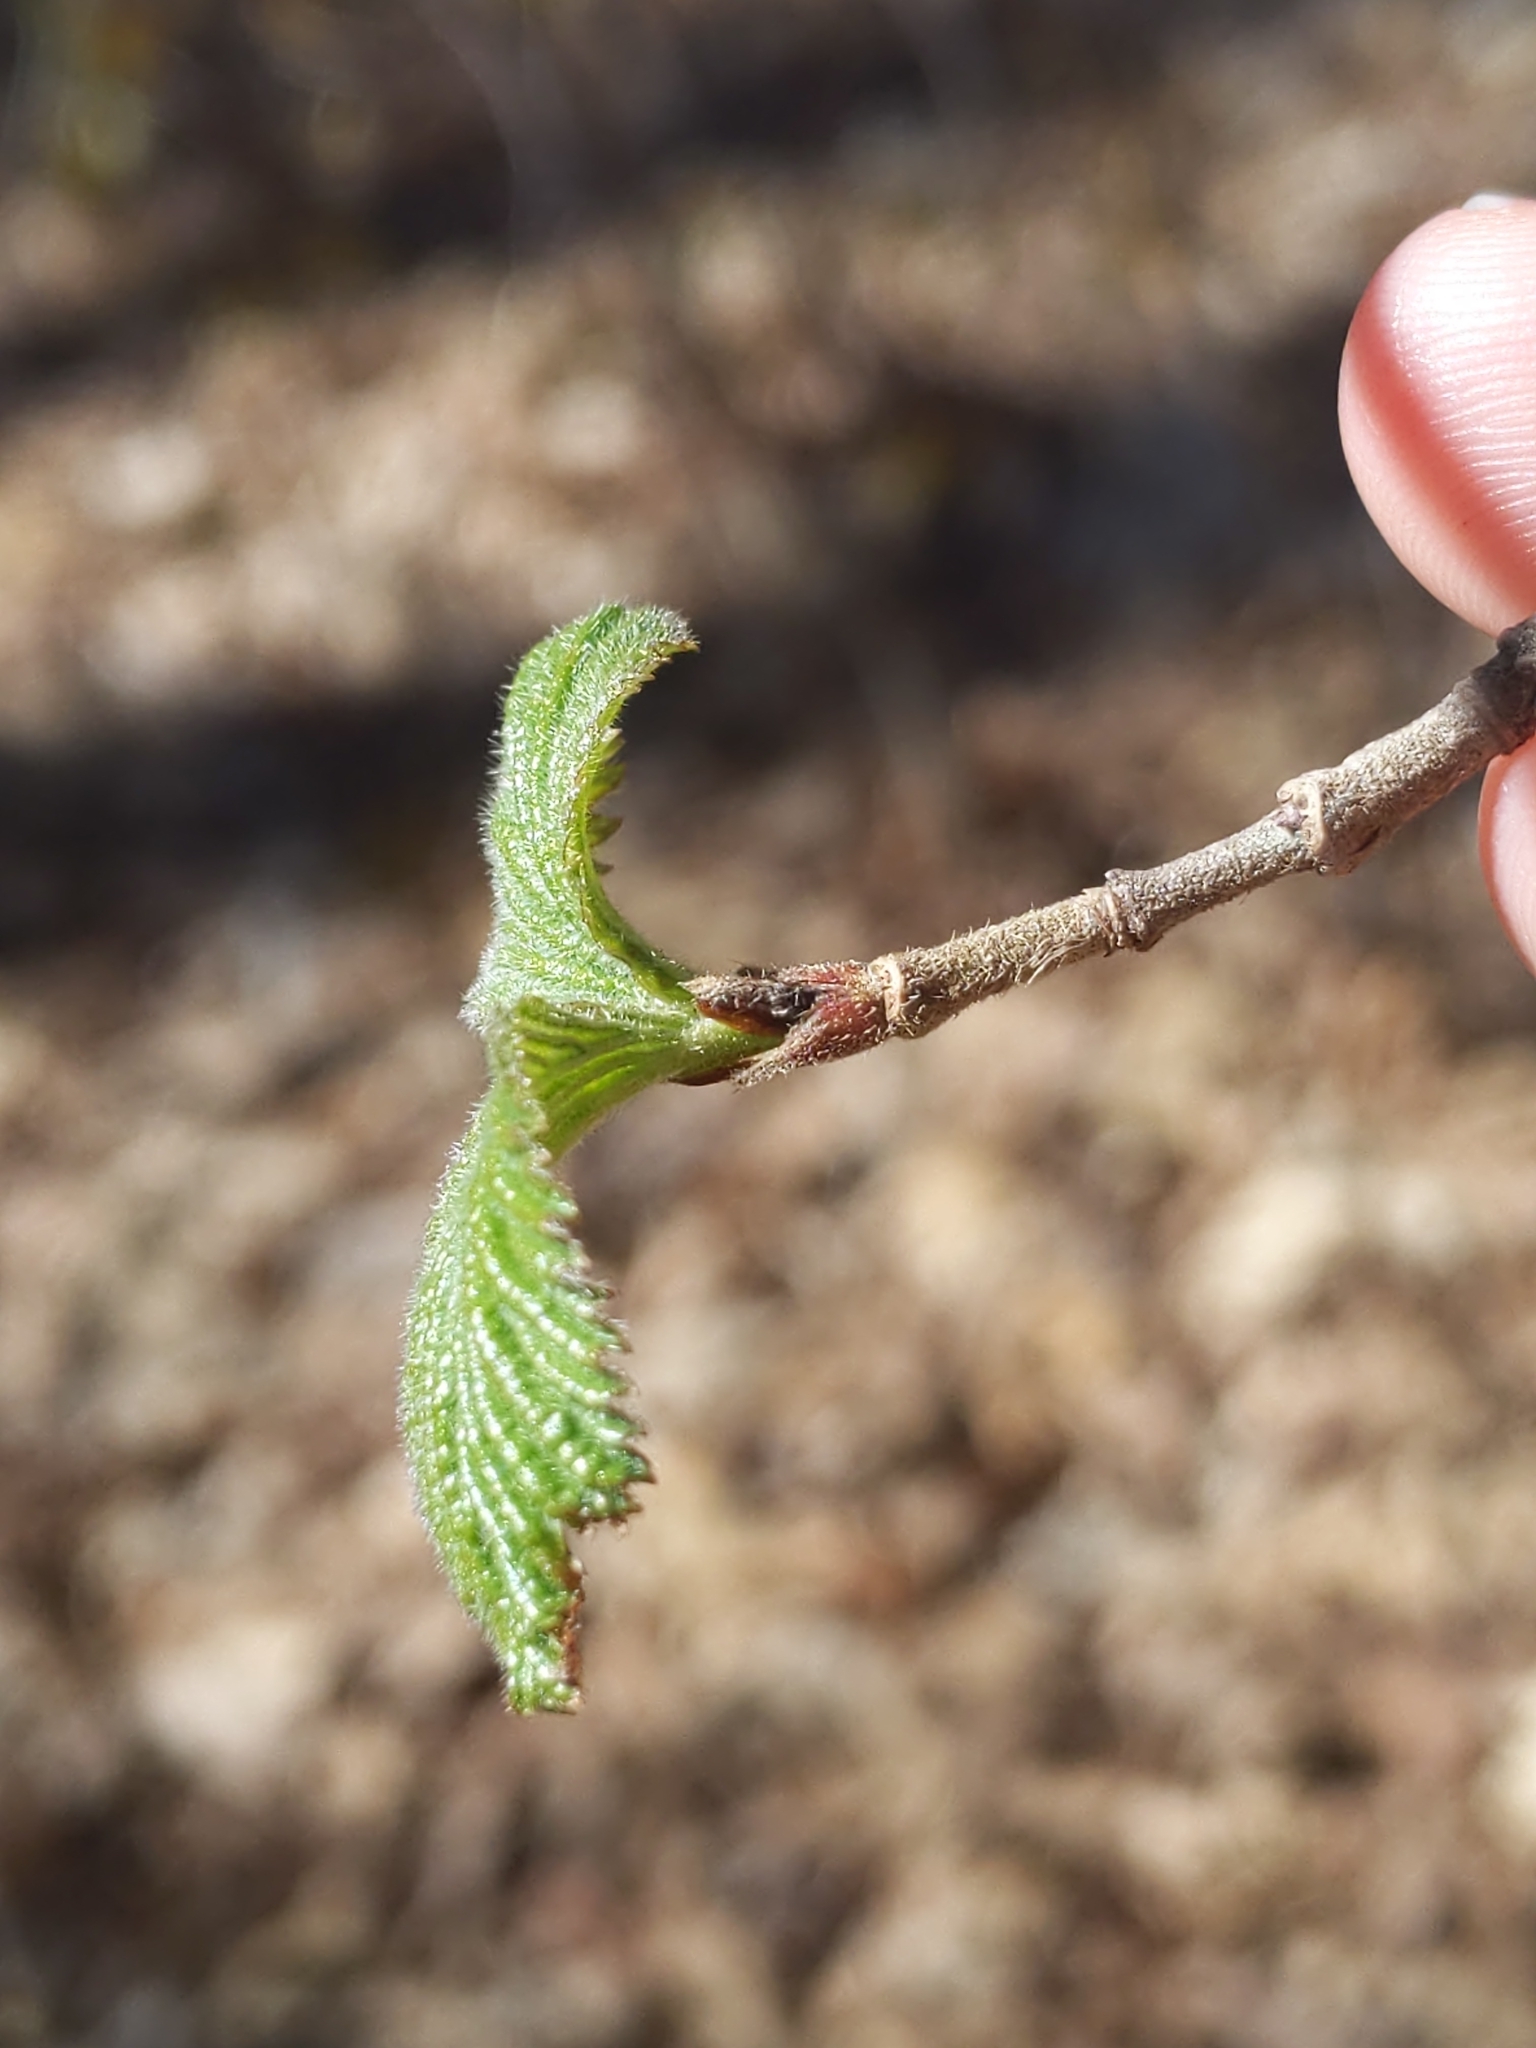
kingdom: Plantae
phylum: Tracheophyta
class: Magnoliopsida
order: Dipsacales
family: Viburnaceae
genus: Viburnum
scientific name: Viburnum dilatatum
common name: Linden arrowwood
